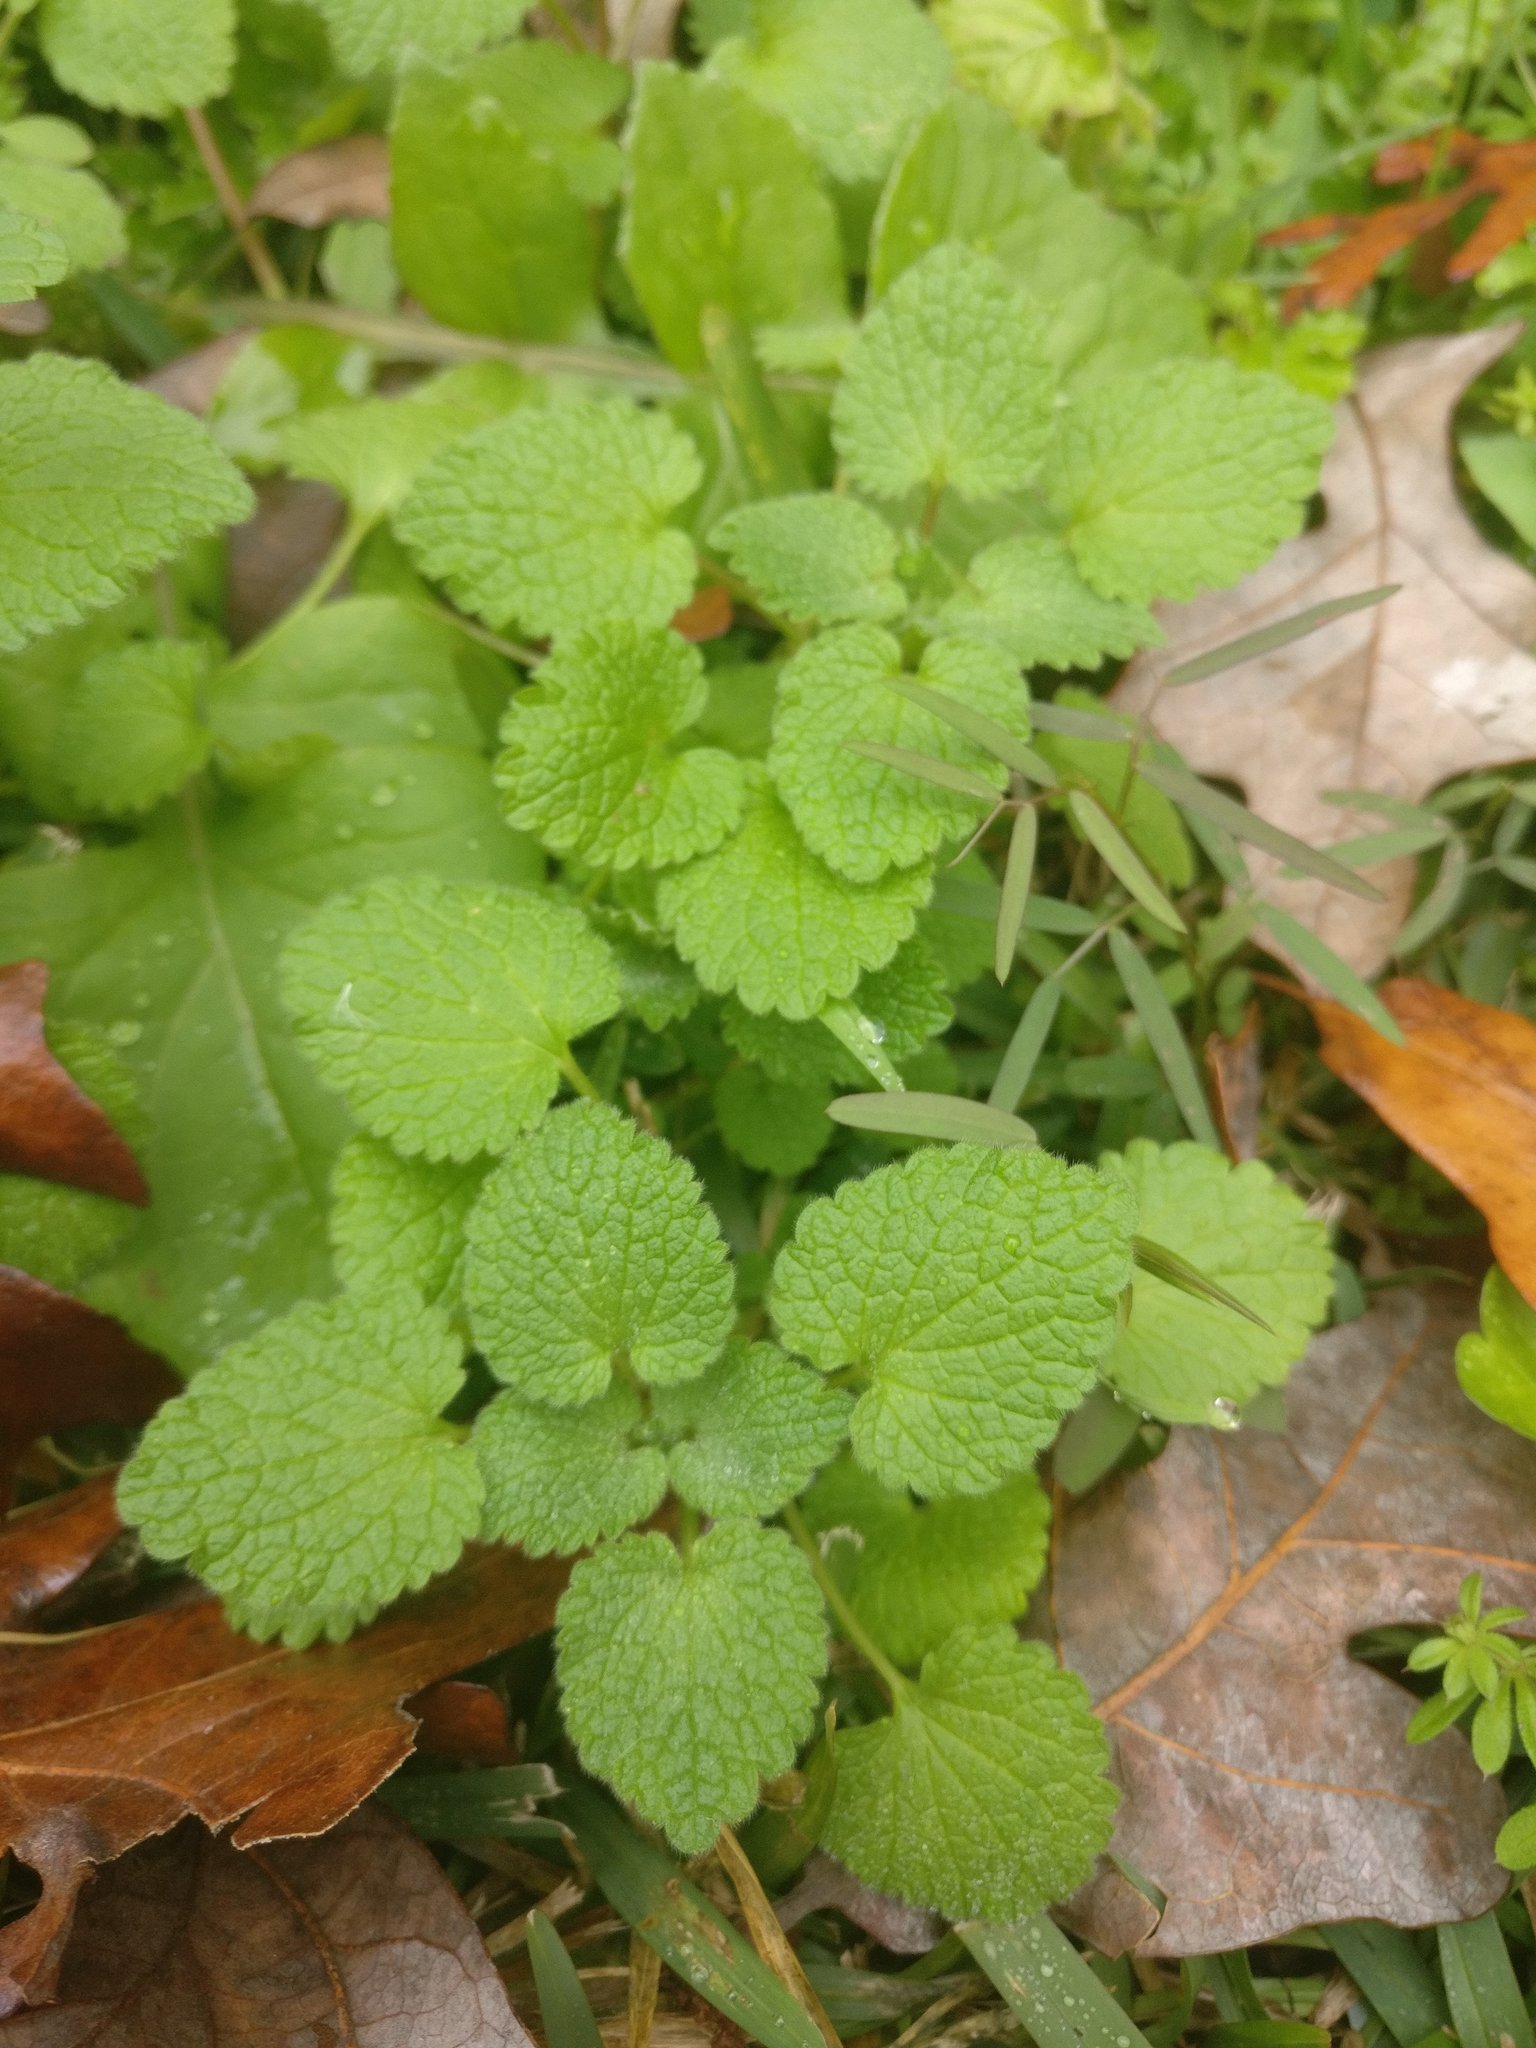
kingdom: Plantae
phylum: Tracheophyta
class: Magnoliopsida
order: Lamiales
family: Lamiaceae
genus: Lamium
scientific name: Lamium purpureum
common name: Red dead-nettle
